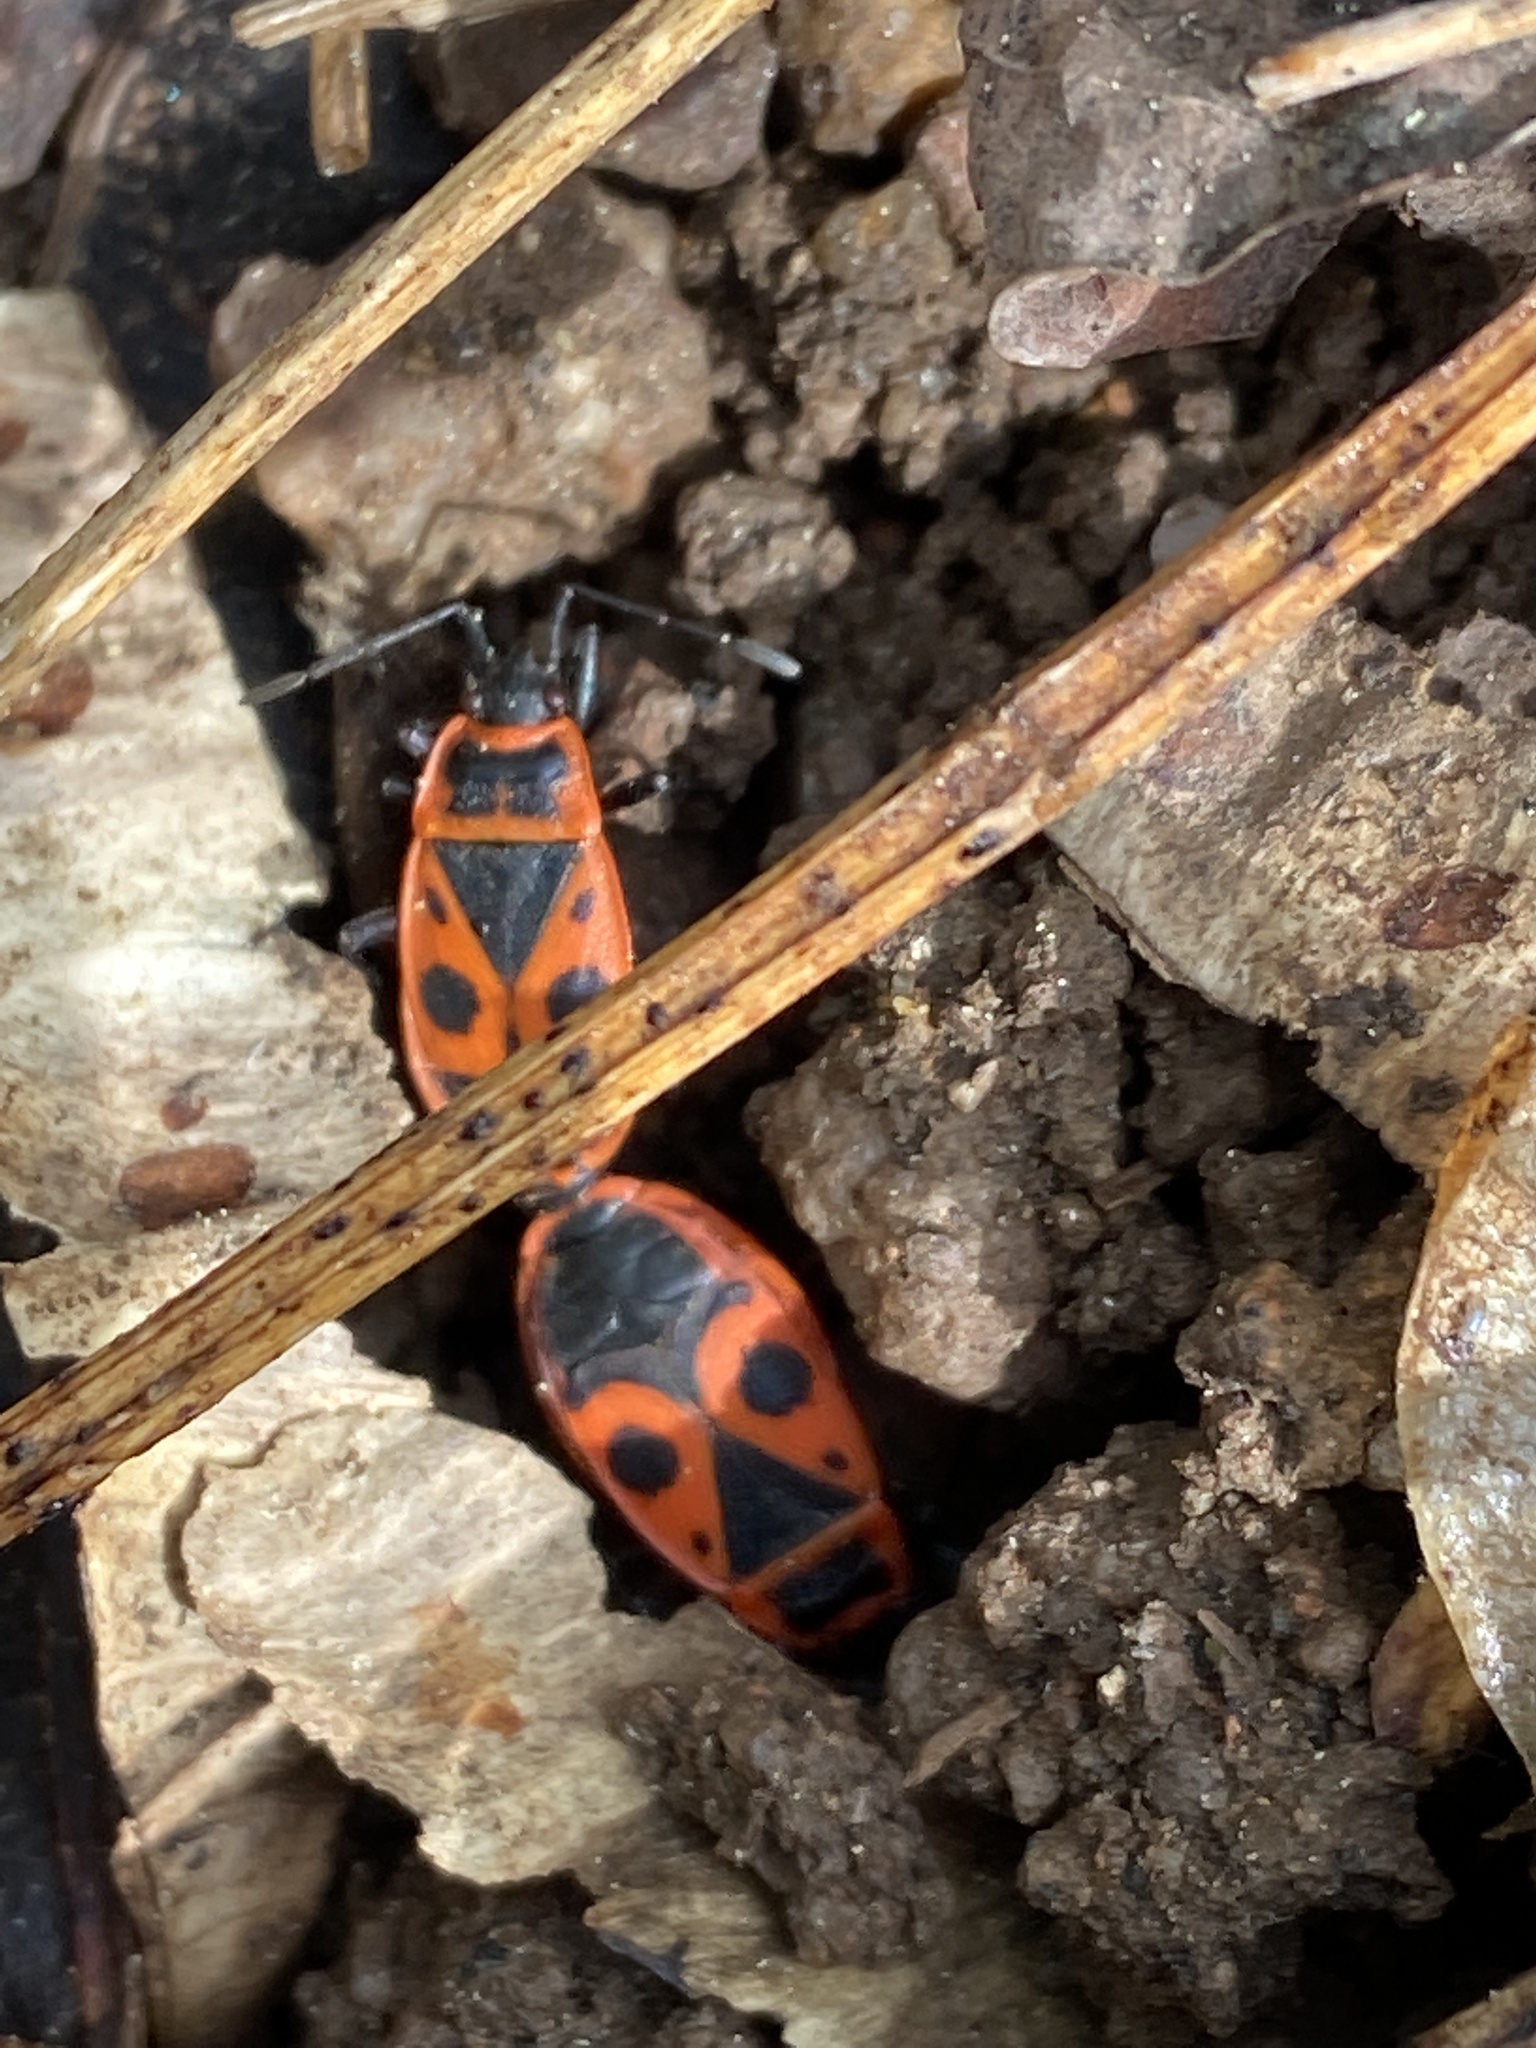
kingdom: Animalia
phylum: Arthropoda
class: Insecta
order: Hemiptera
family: Pyrrhocoridae
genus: Pyrrhocoris
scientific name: Pyrrhocoris apterus
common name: Firebug
